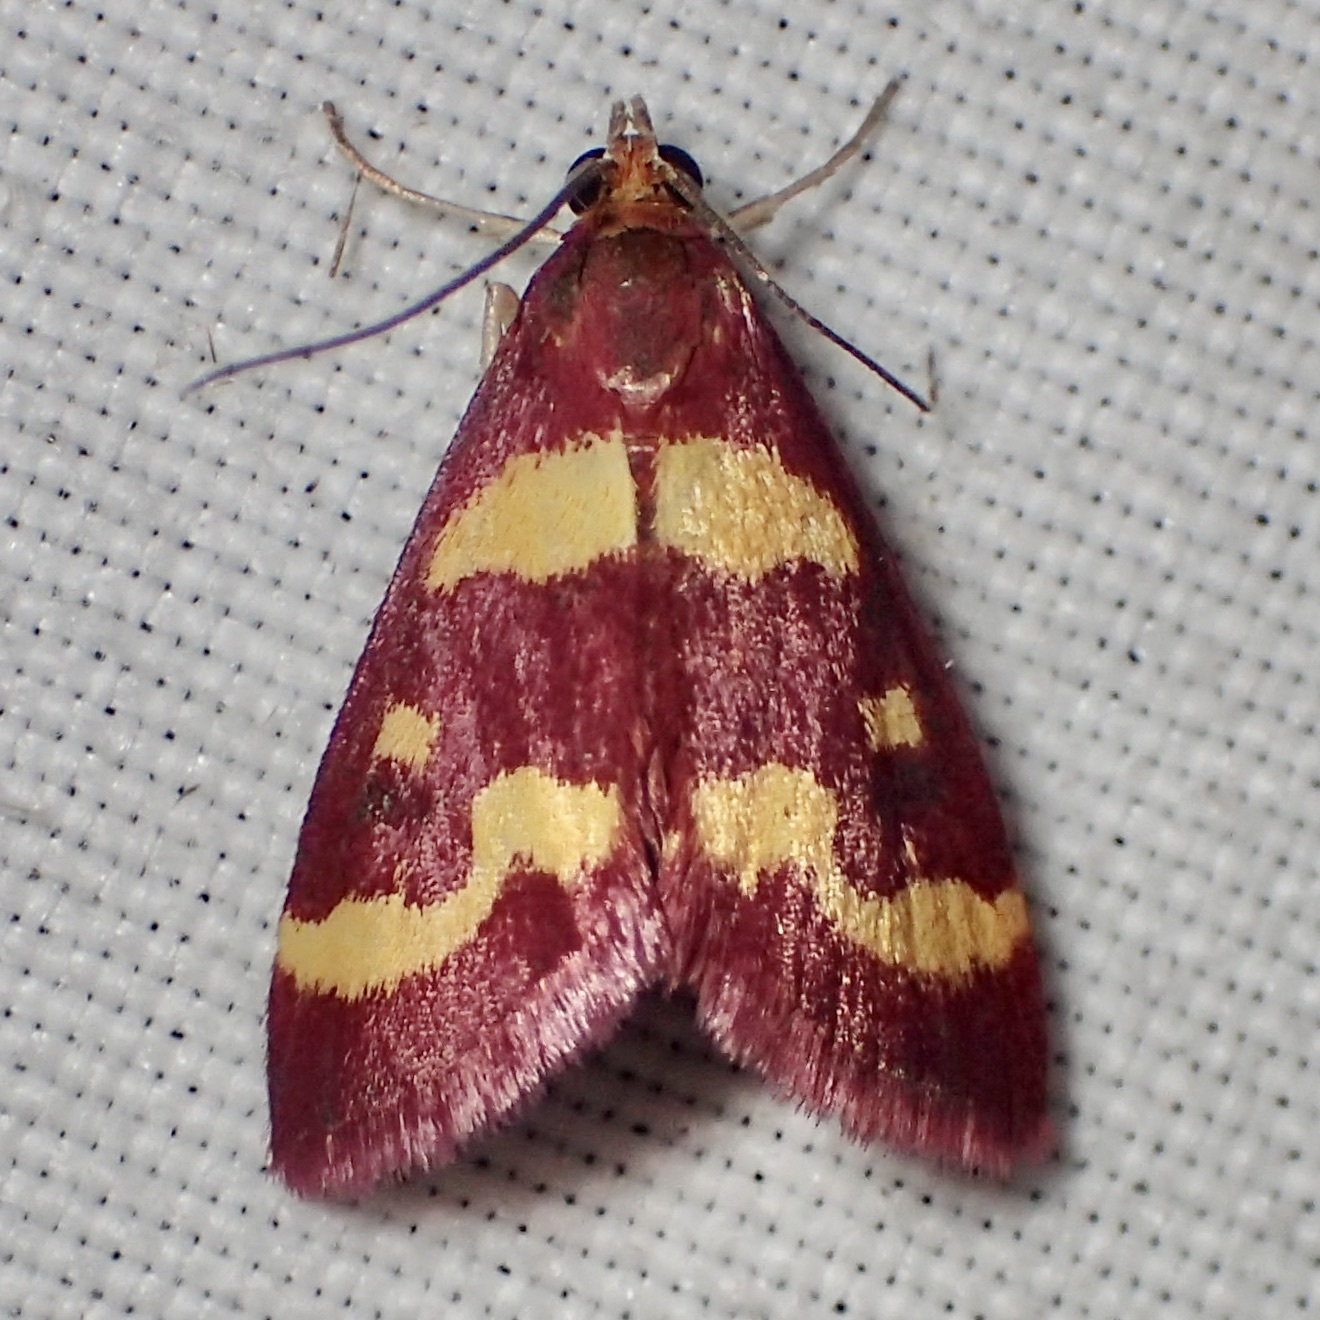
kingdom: Animalia
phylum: Arthropoda
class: Insecta
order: Lepidoptera
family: Crambidae
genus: Pyrausta
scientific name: Pyrausta tyralis
